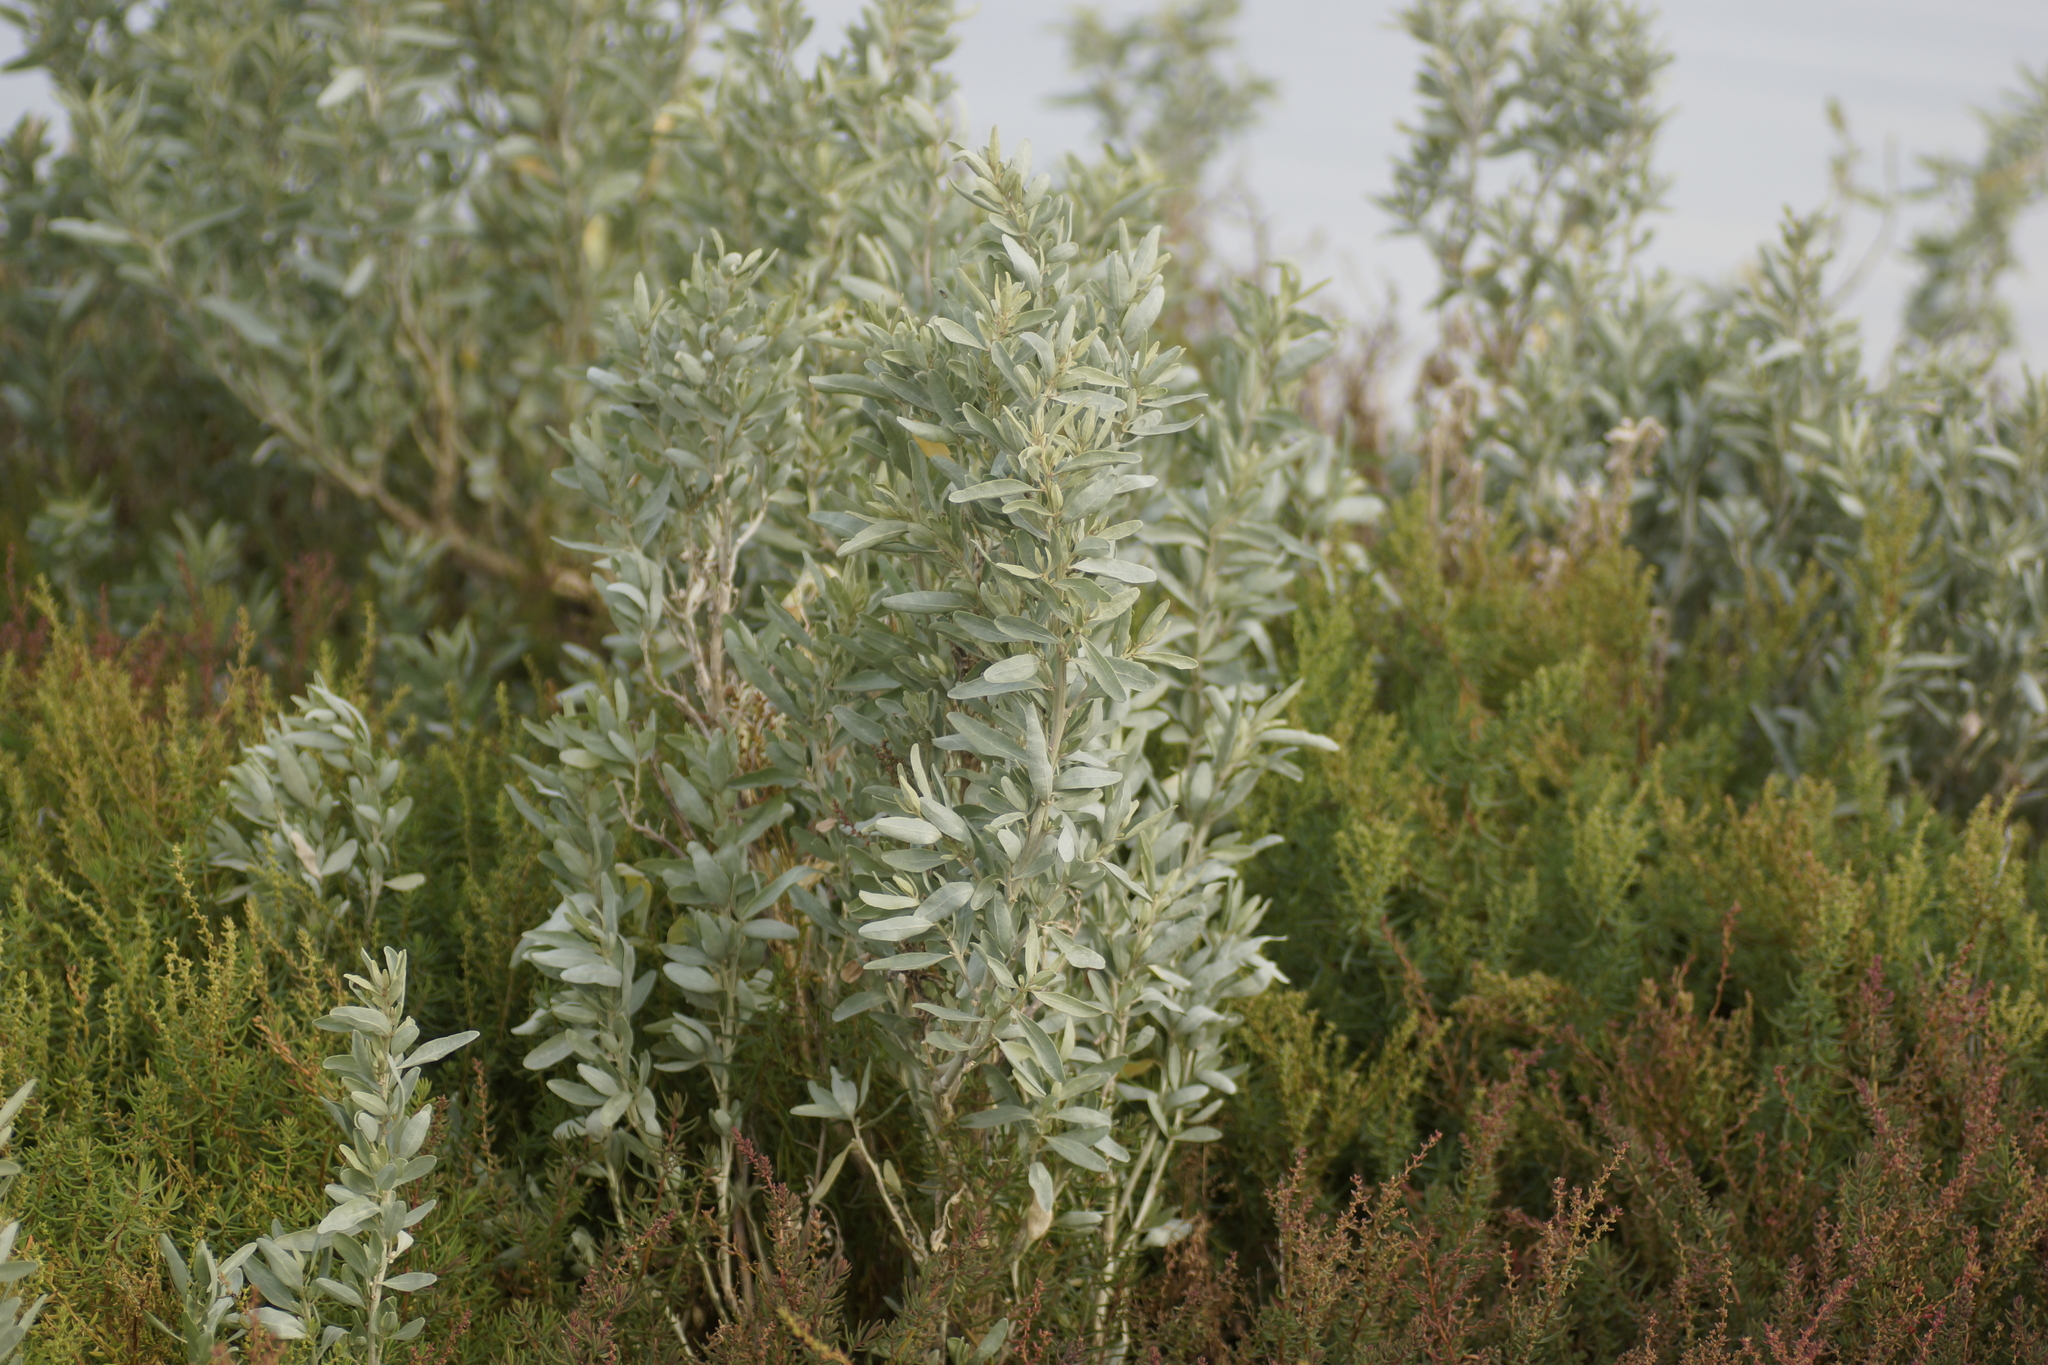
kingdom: Plantae
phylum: Tracheophyta
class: Magnoliopsida
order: Caryophyllales
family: Amaranthaceae
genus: Atriplex
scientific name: Atriplex cinerea
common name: Grey saltbush
